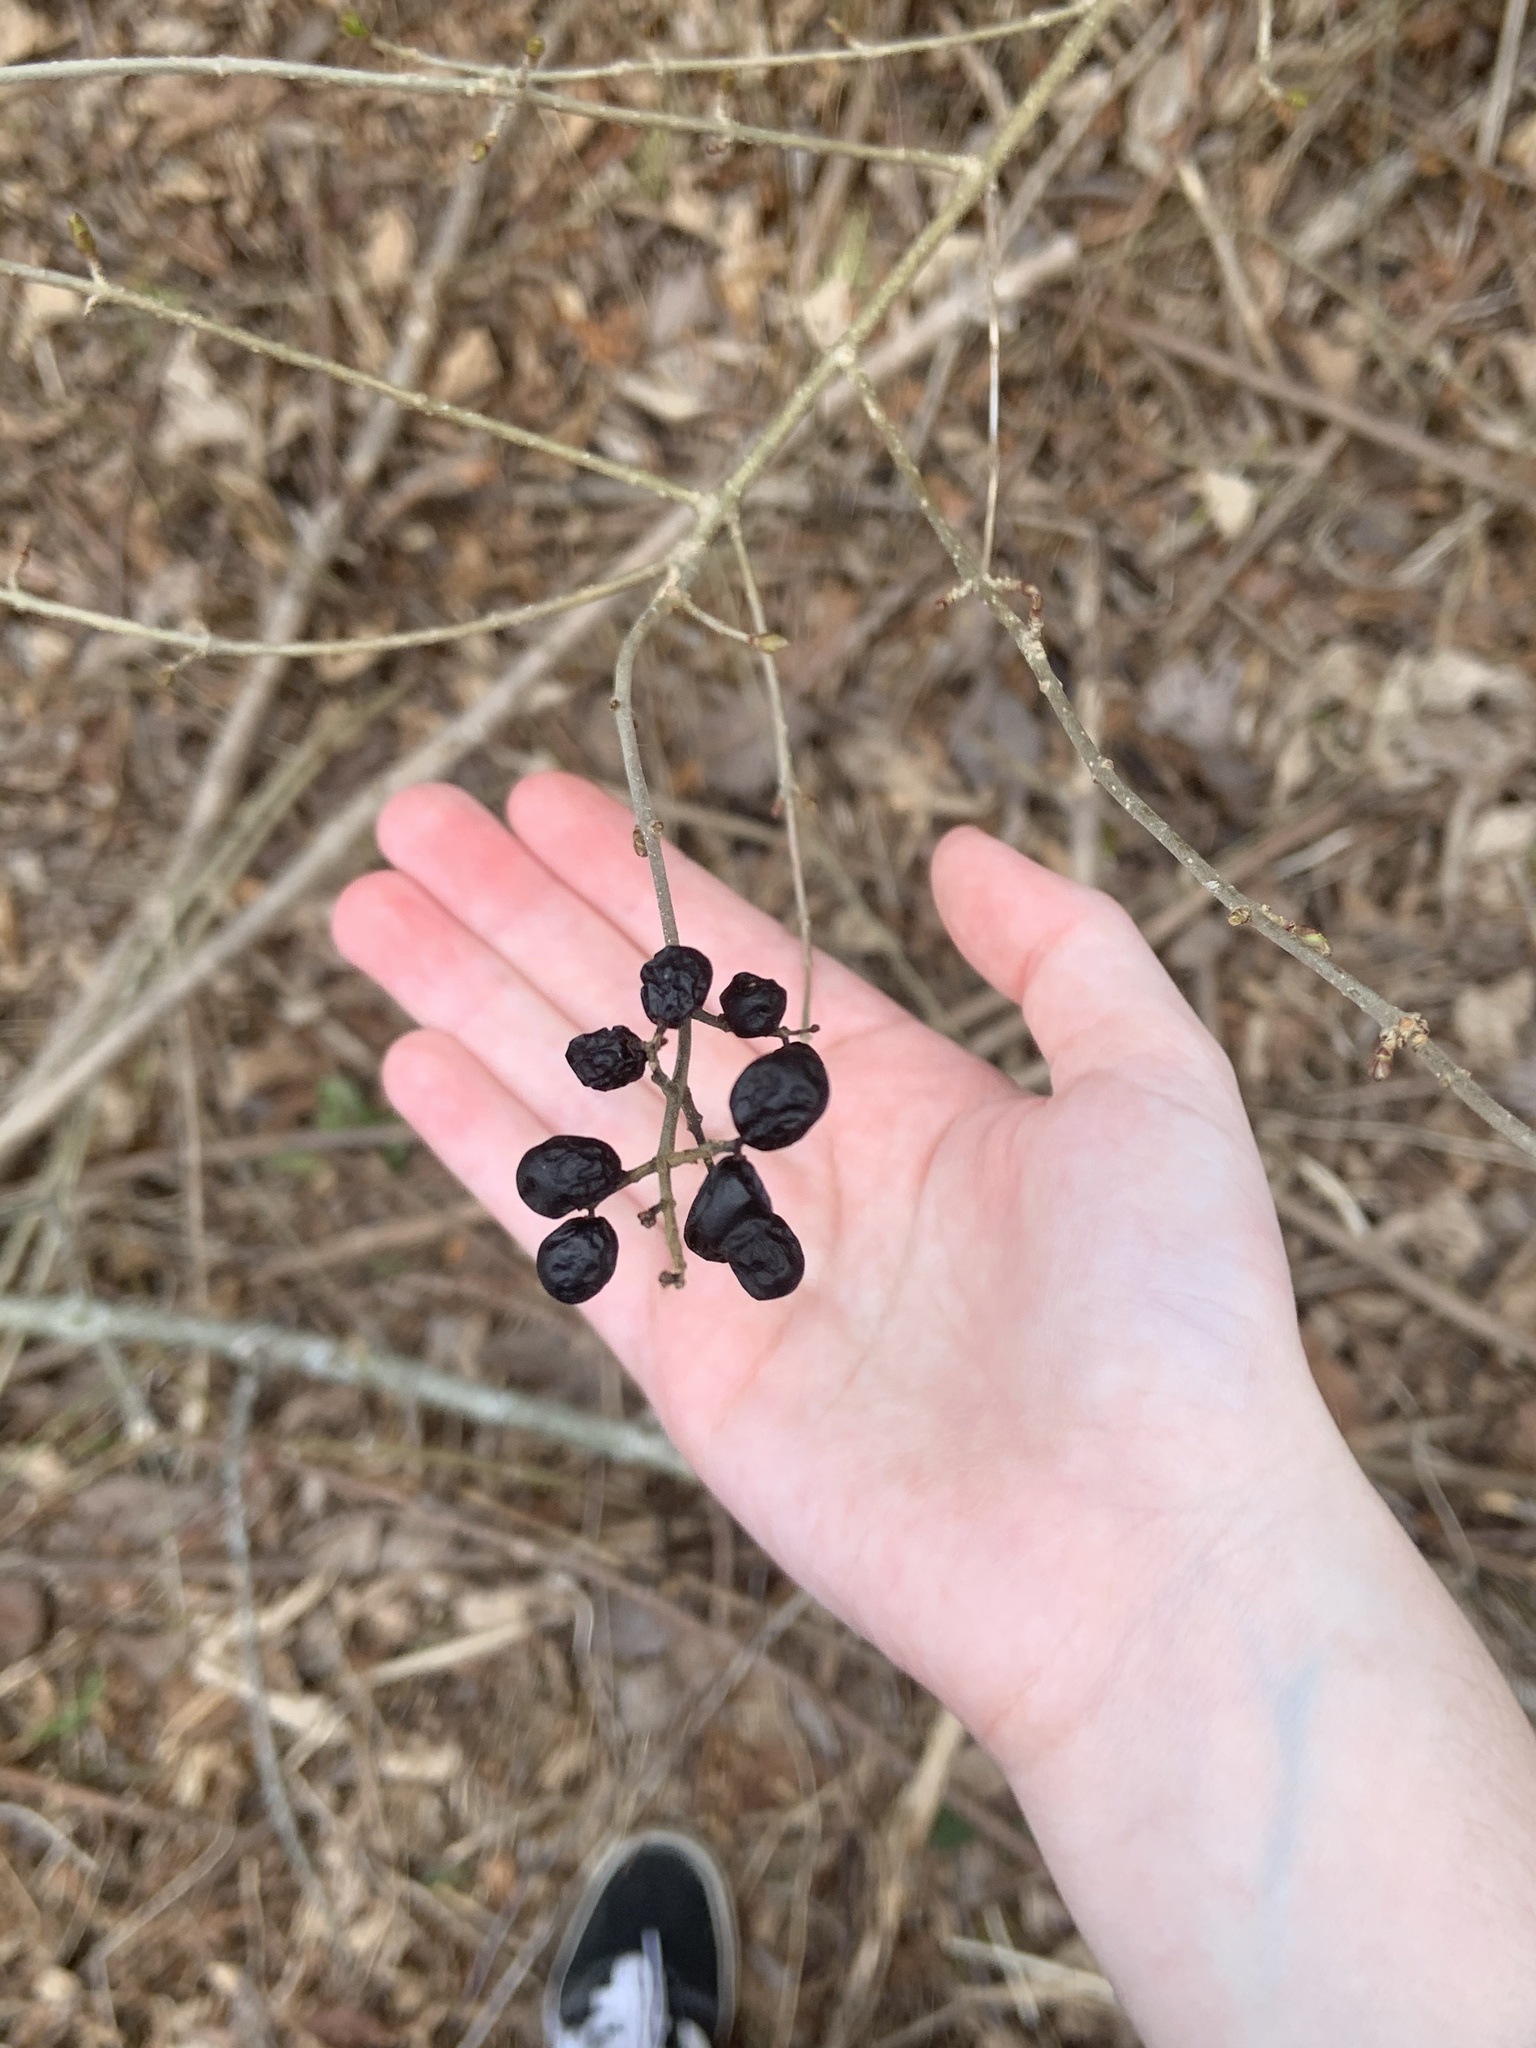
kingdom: Plantae
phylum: Tracheophyta
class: Magnoliopsida
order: Lamiales
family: Oleaceae
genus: Ligustrum
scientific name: Ligustrum vulgare
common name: Wild privet
